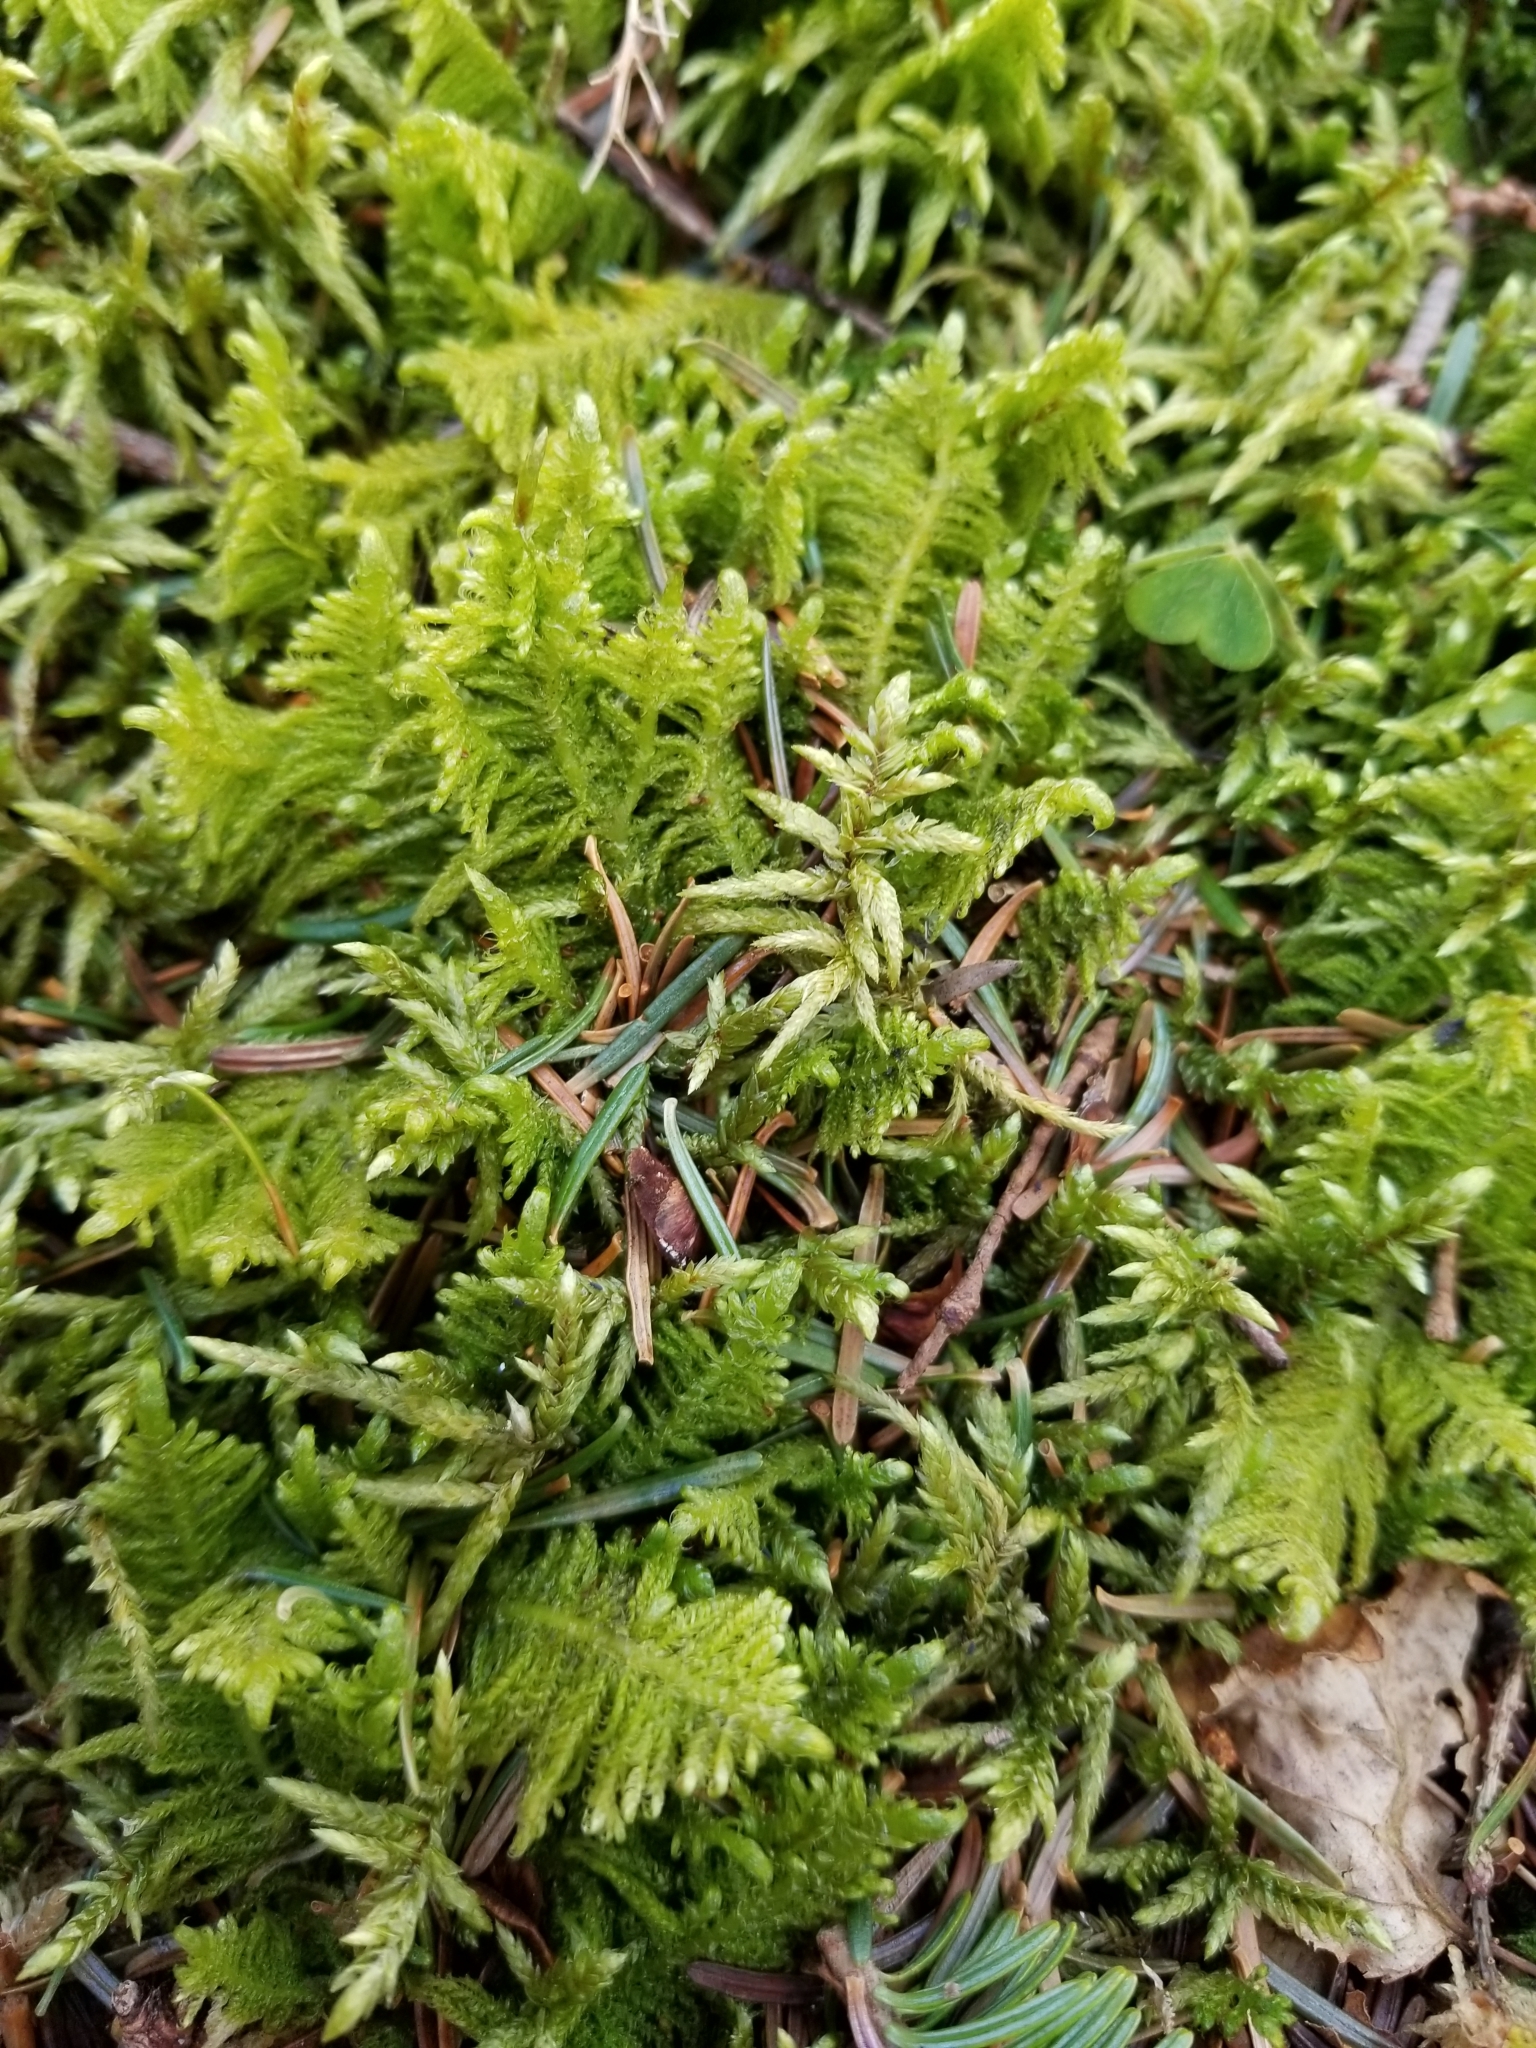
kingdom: Plantae
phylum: Bryophyta
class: Bryopsida
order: Hypnales
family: Pylaisiaceae
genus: Ptilium
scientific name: Ptilium crista-castrensis
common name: Knight's plume moss
